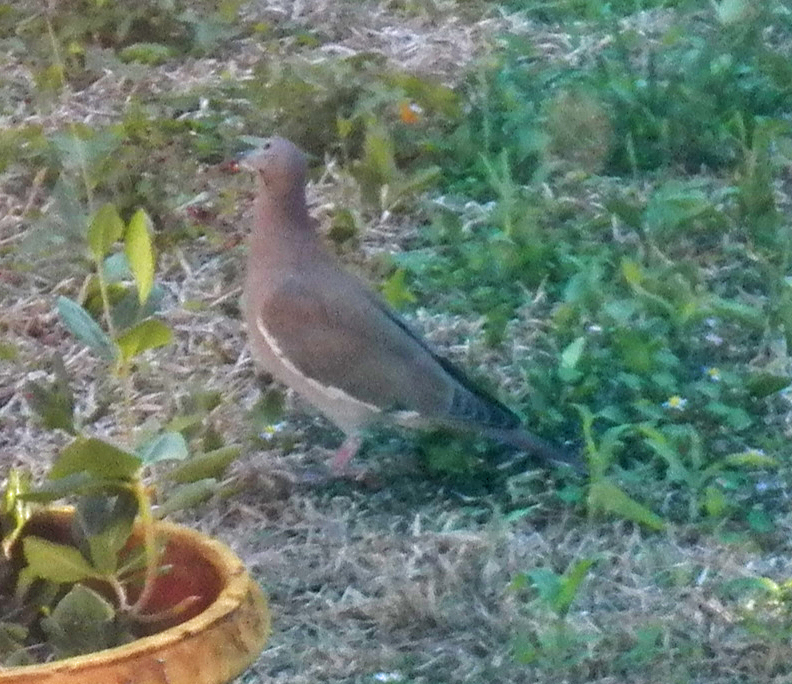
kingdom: Animalia
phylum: Chordata
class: Aves
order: Columbiformes
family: Columbidae
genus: Zenaida
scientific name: Zenaida asiatica
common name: White-winged dove
